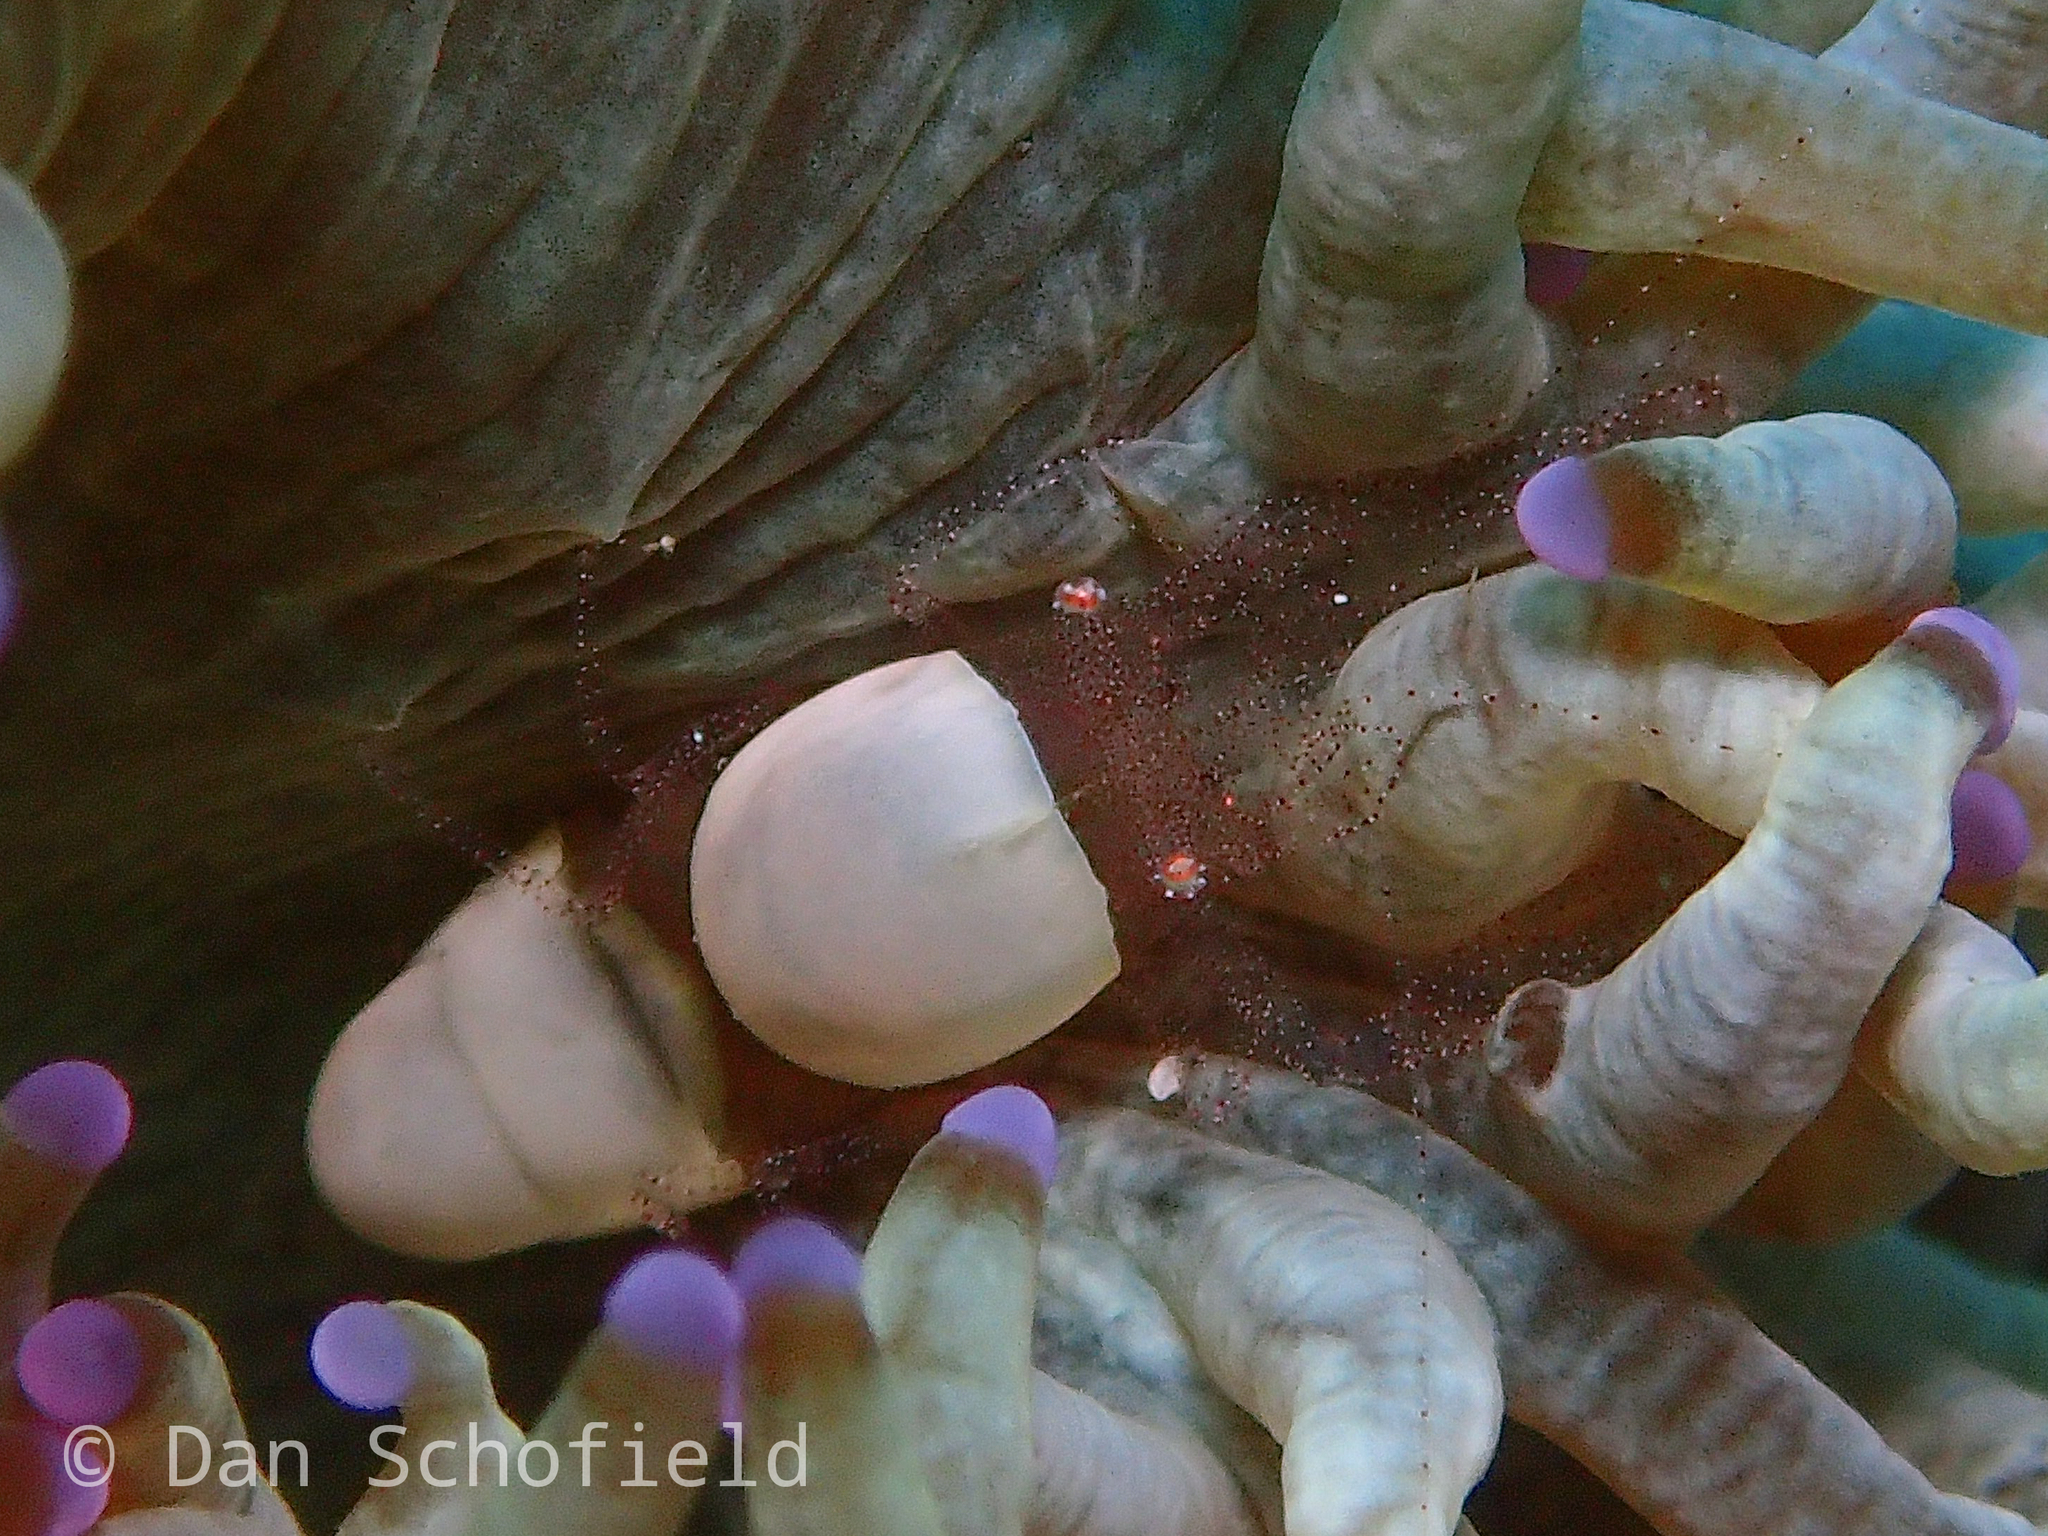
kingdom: Animalia
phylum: Arthropoda
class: Malacostraca
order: Decapoda
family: Palaemonidae
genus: Hamopontonia
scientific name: Hamopontonia fungicola
